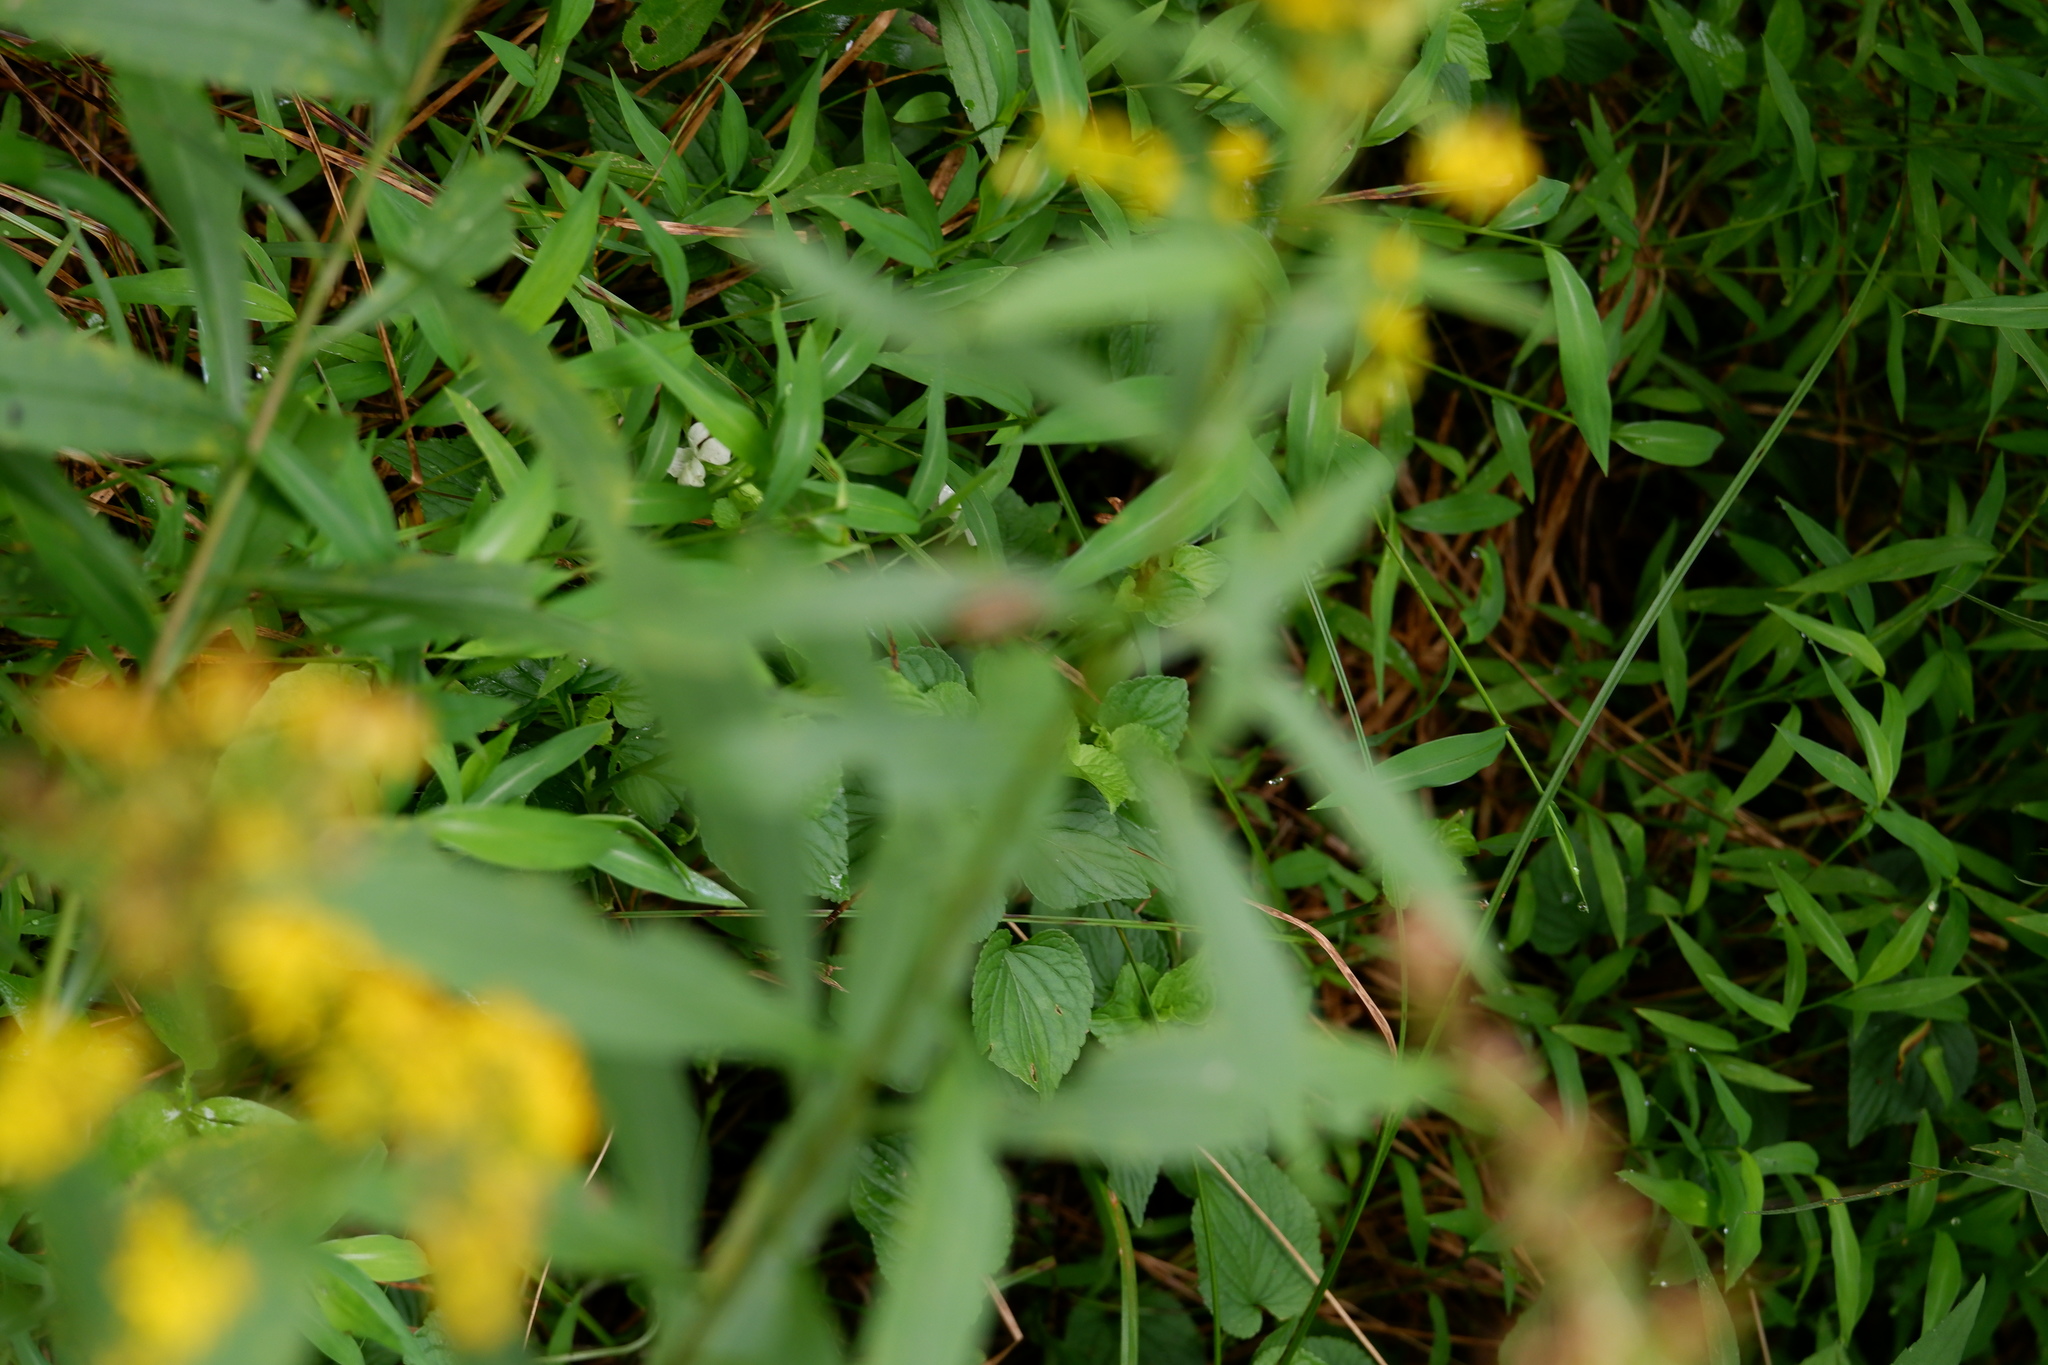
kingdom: Plantae
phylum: Tracheophyta
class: Magnoliopsida
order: Malpighiales
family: Violaceae
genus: Viola
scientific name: Viola striata
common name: Cream violet
